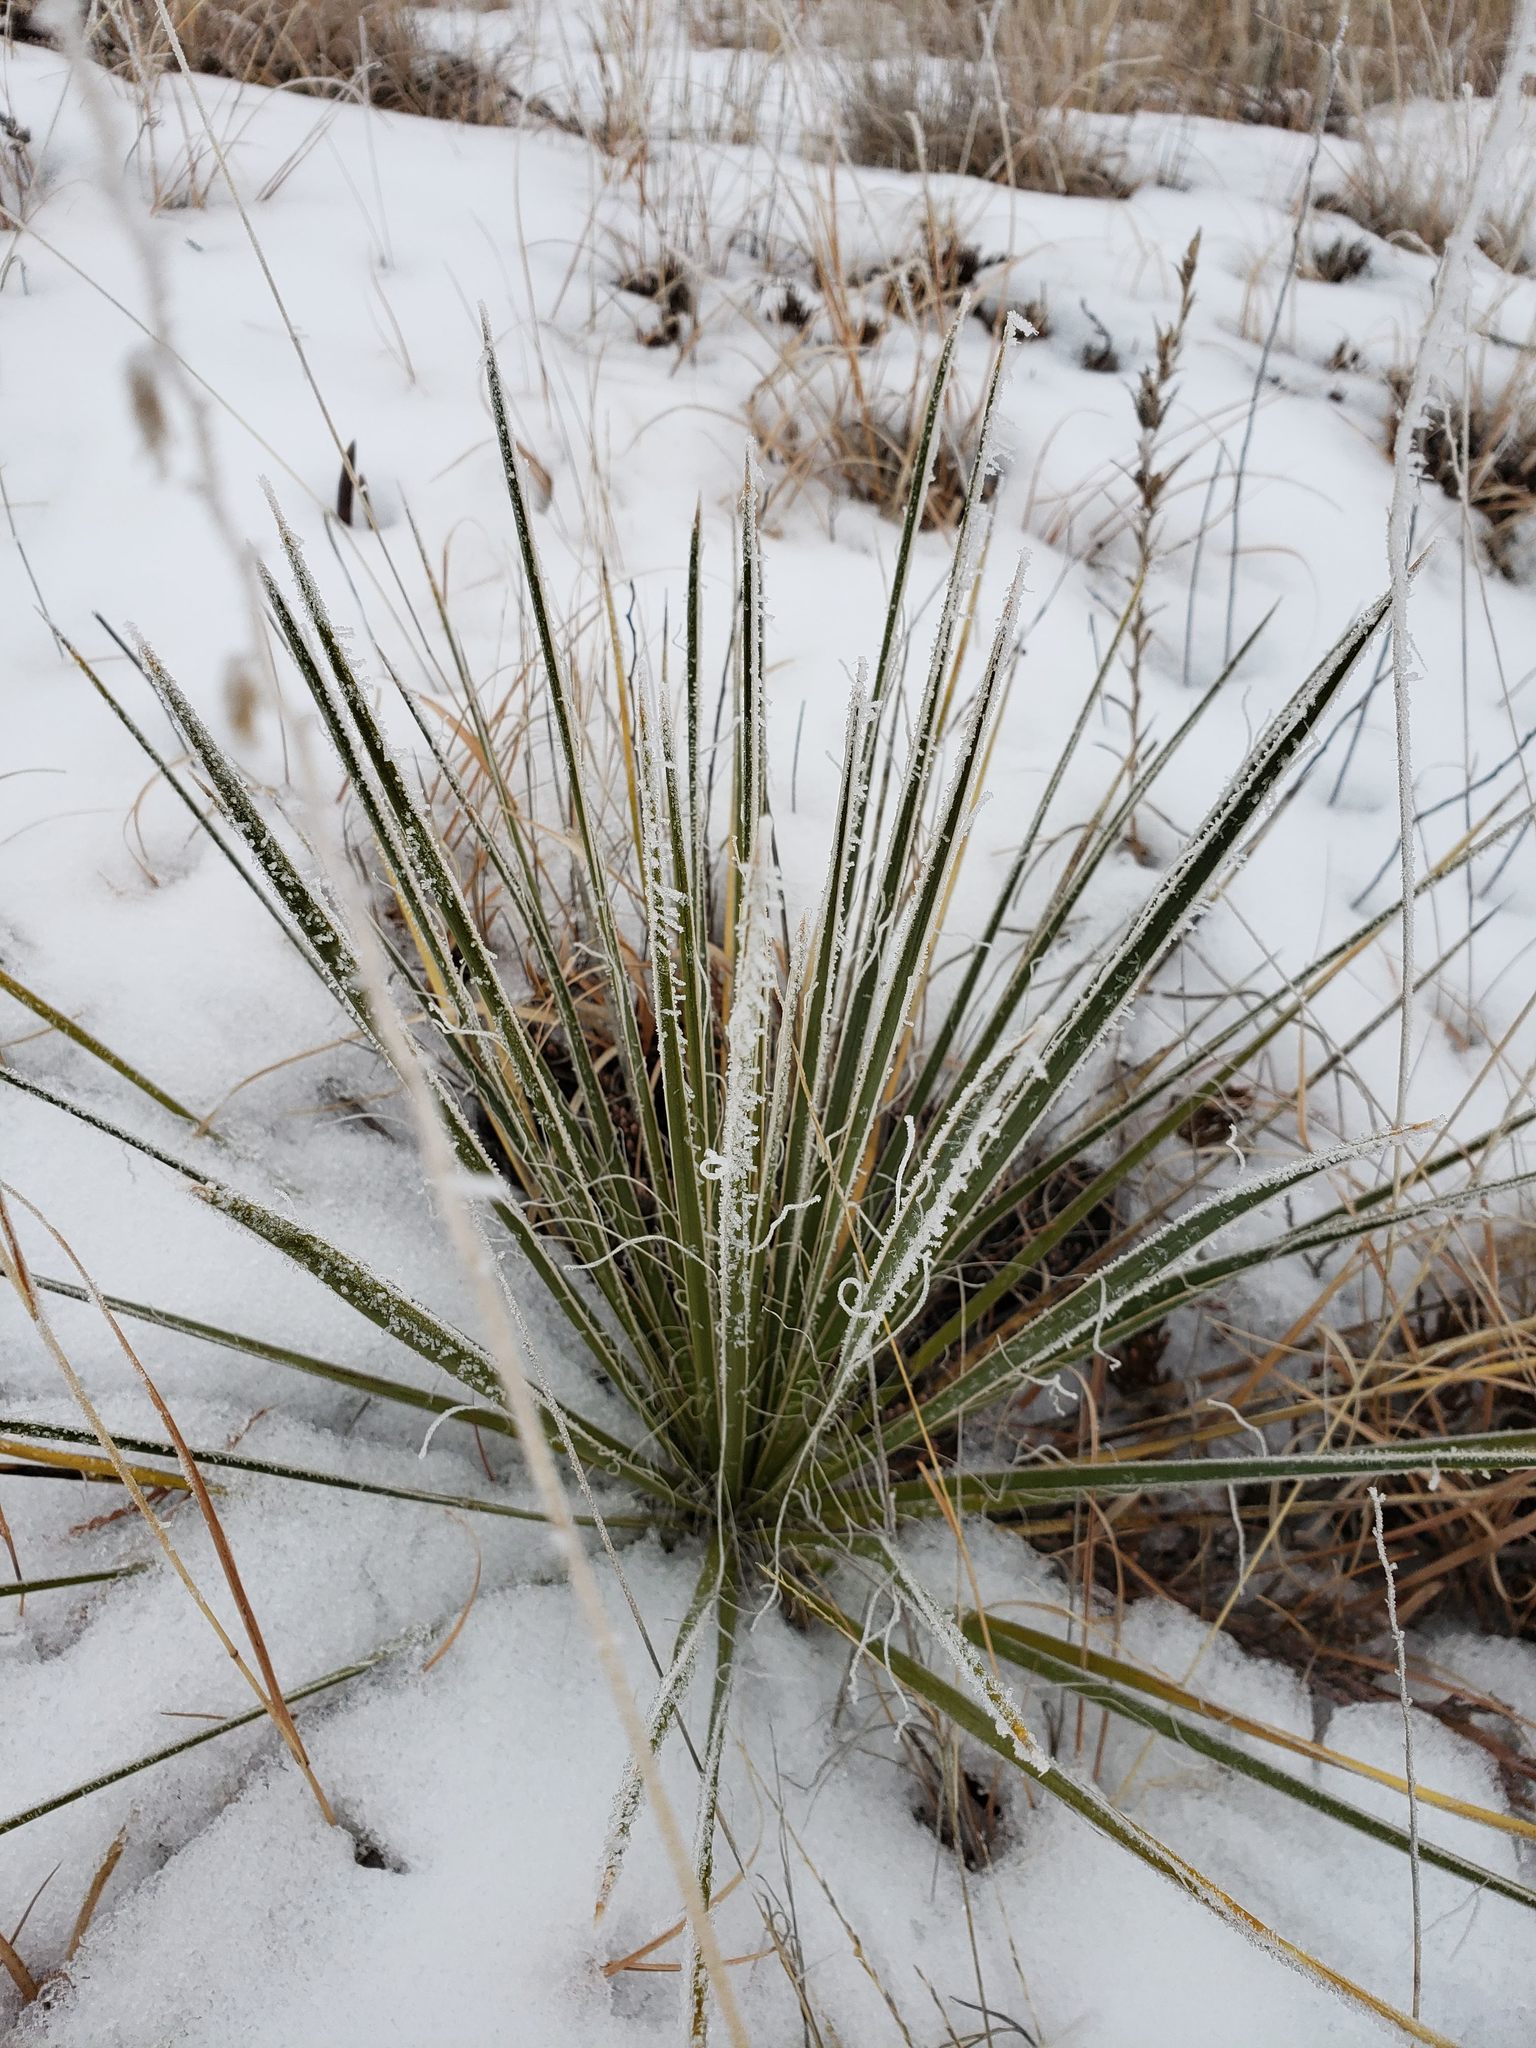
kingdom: Plantae
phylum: Tracheophyta
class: Liliopsida
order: Asparagales
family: Asparagaceae
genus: Yucca
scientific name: Yucca glauca
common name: Great plains yucca
